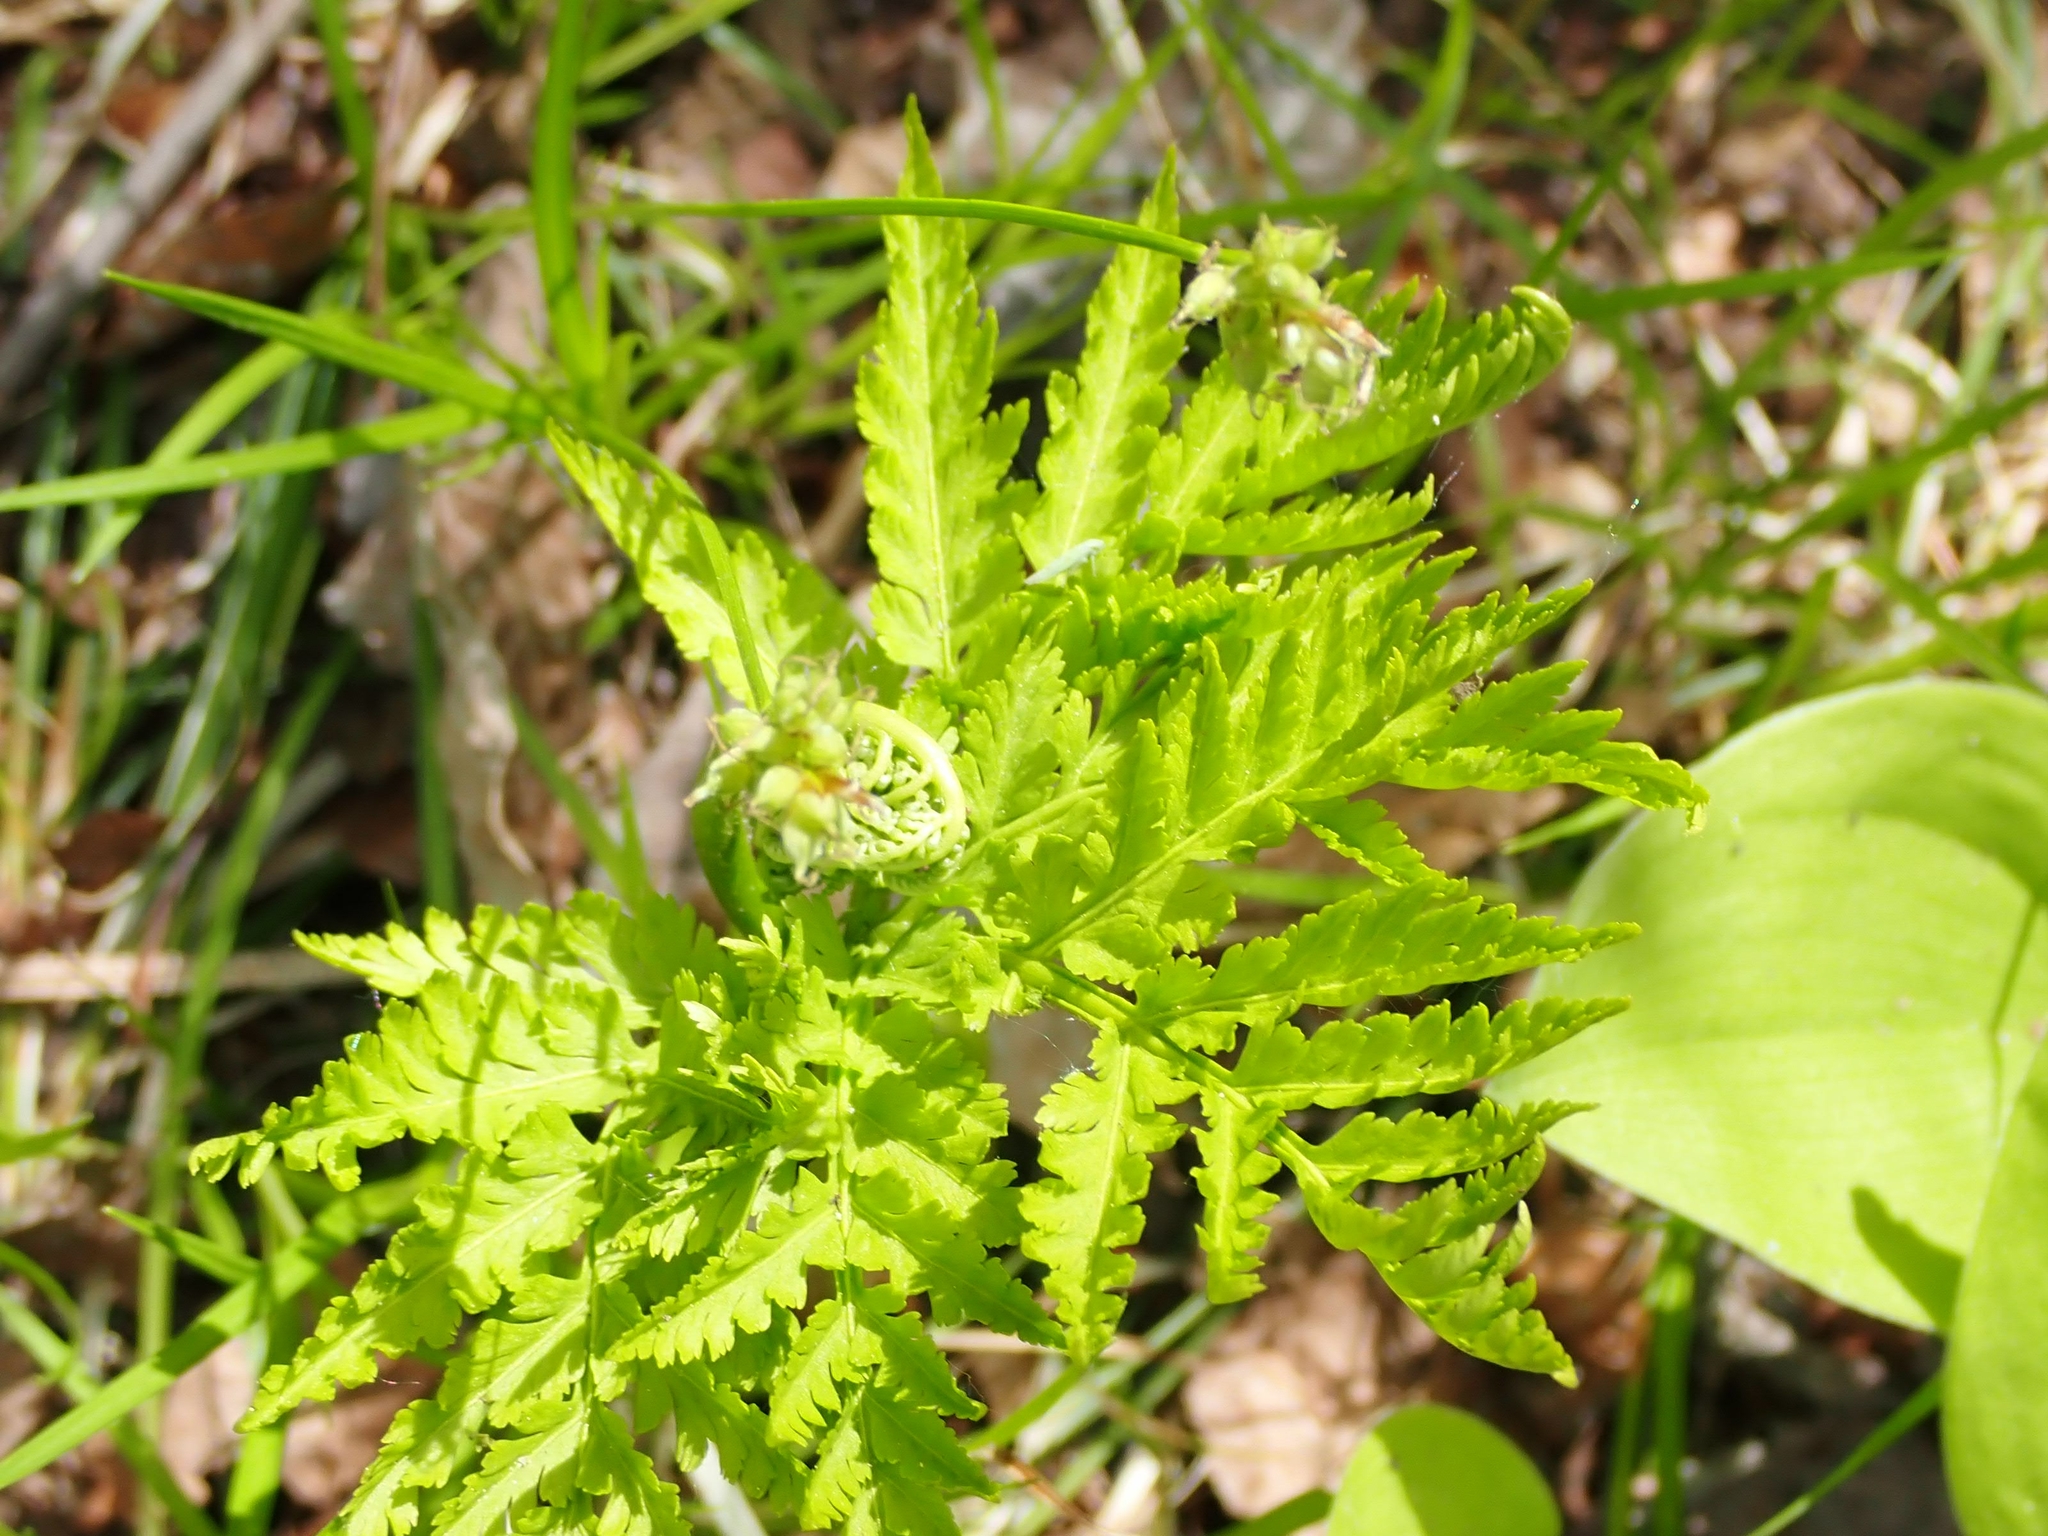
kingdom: Plantae
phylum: Tracheophyta
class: Polypodiopsida
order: Ophioglossales
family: Ophioglossaceae
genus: Botrypus
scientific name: Botrypus virginianus
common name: Common grapefern
